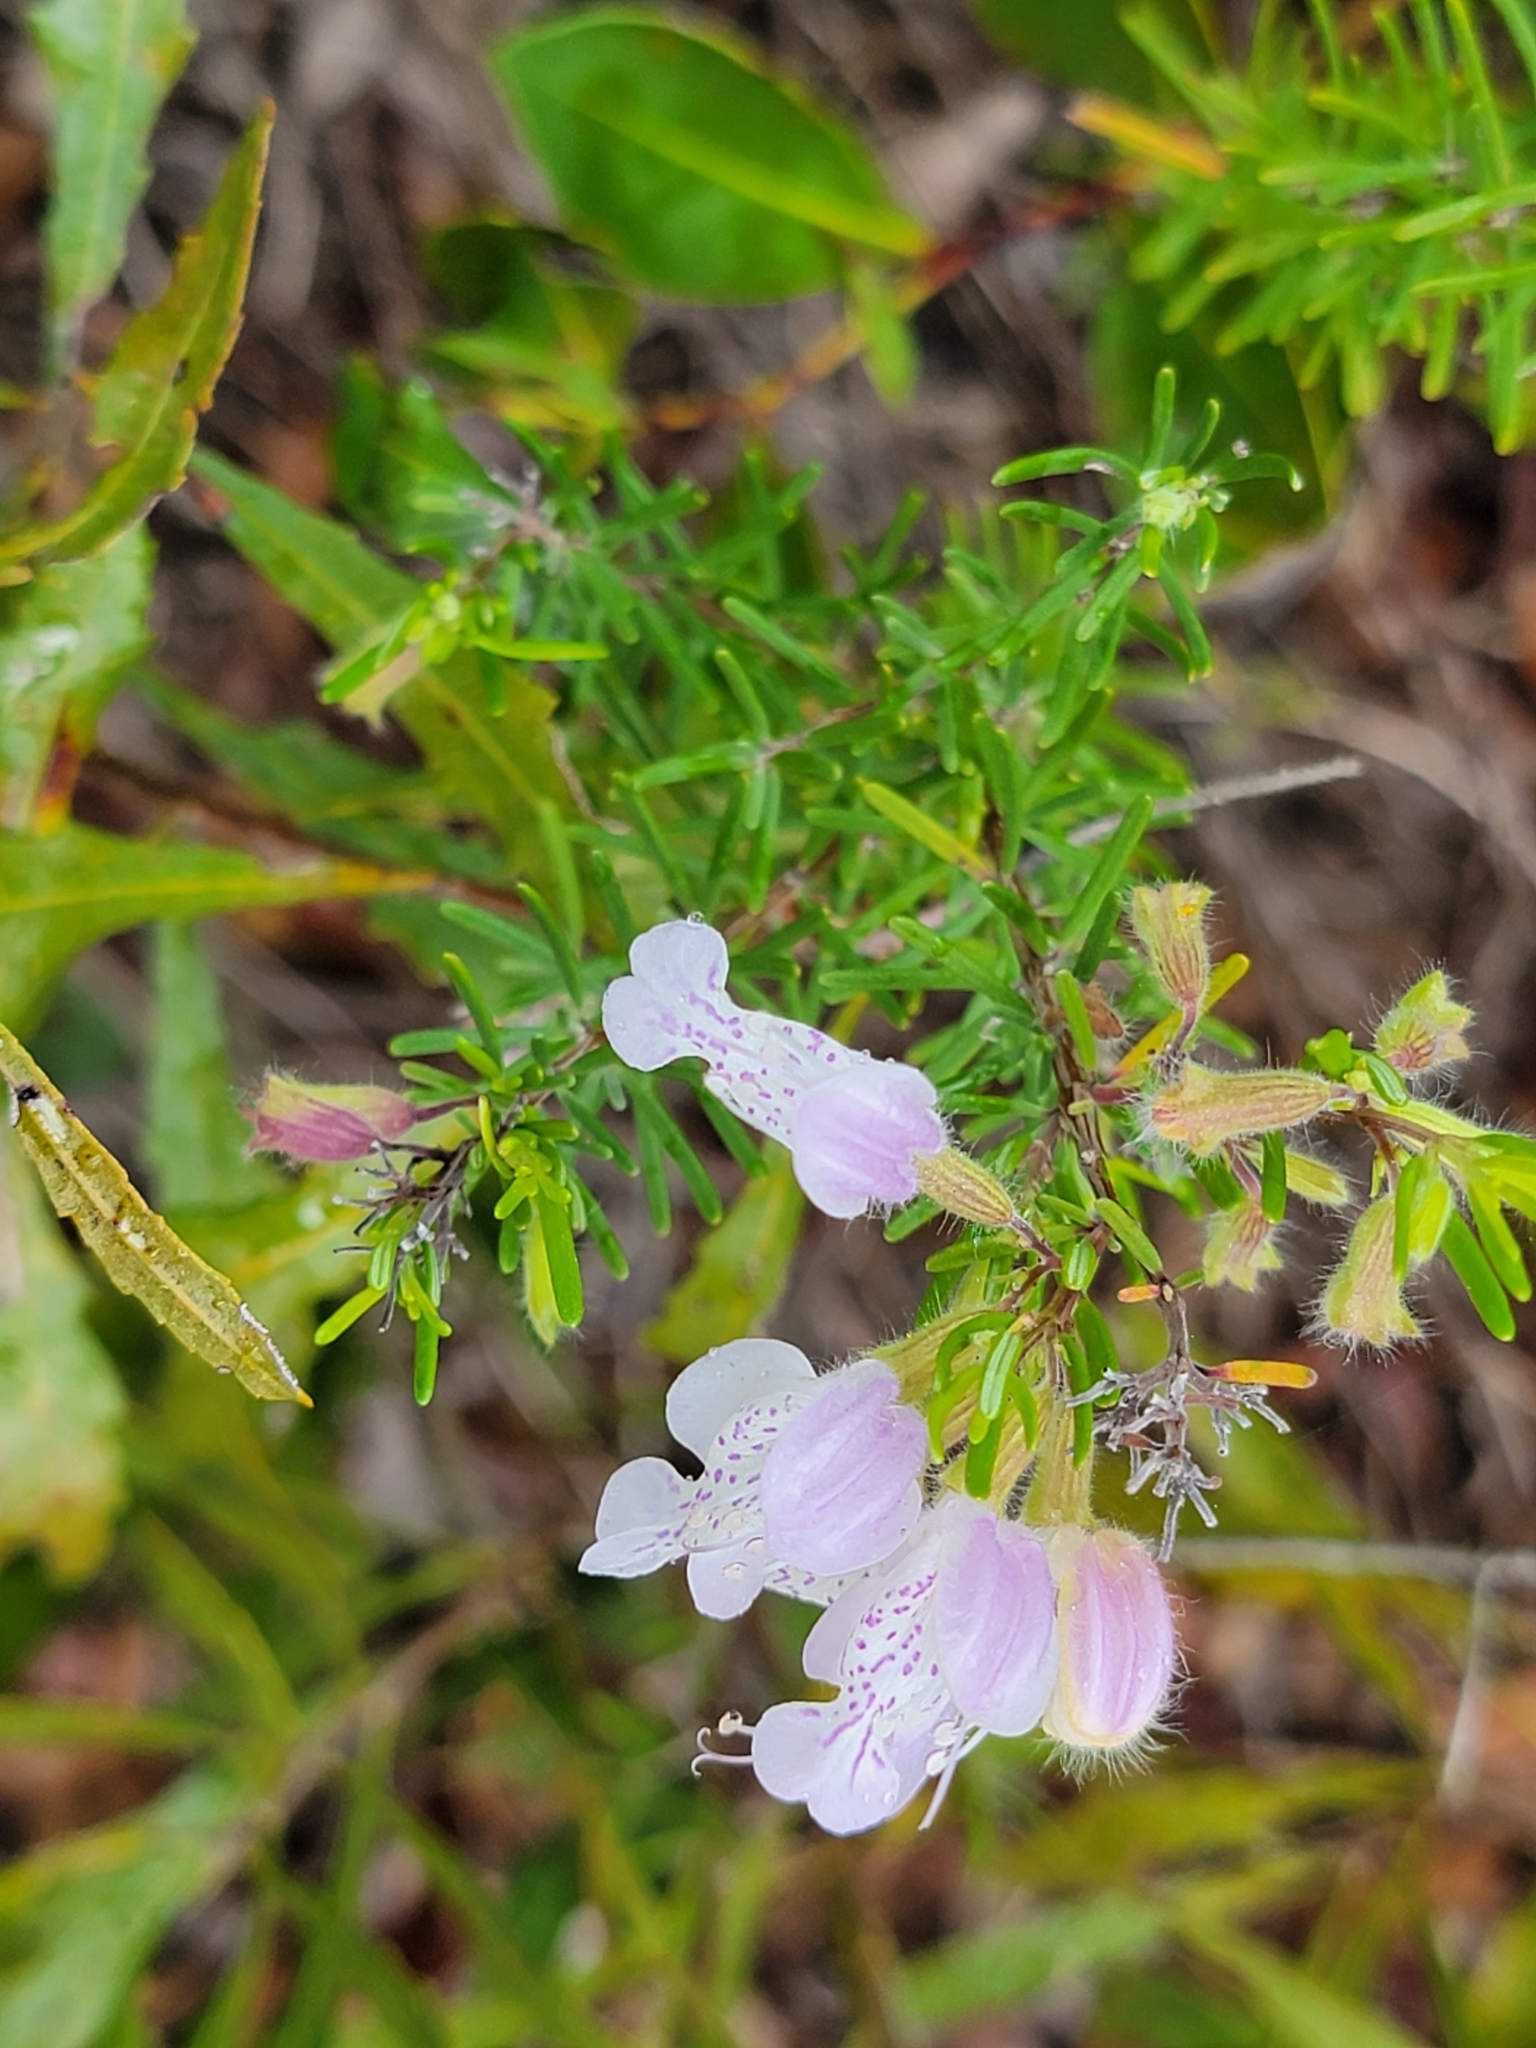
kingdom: Plantae
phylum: Tracheophyta
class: Magnoliopsida
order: Lamiales
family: Lamiaceae
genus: Conradina
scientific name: Conradina grandiflora
